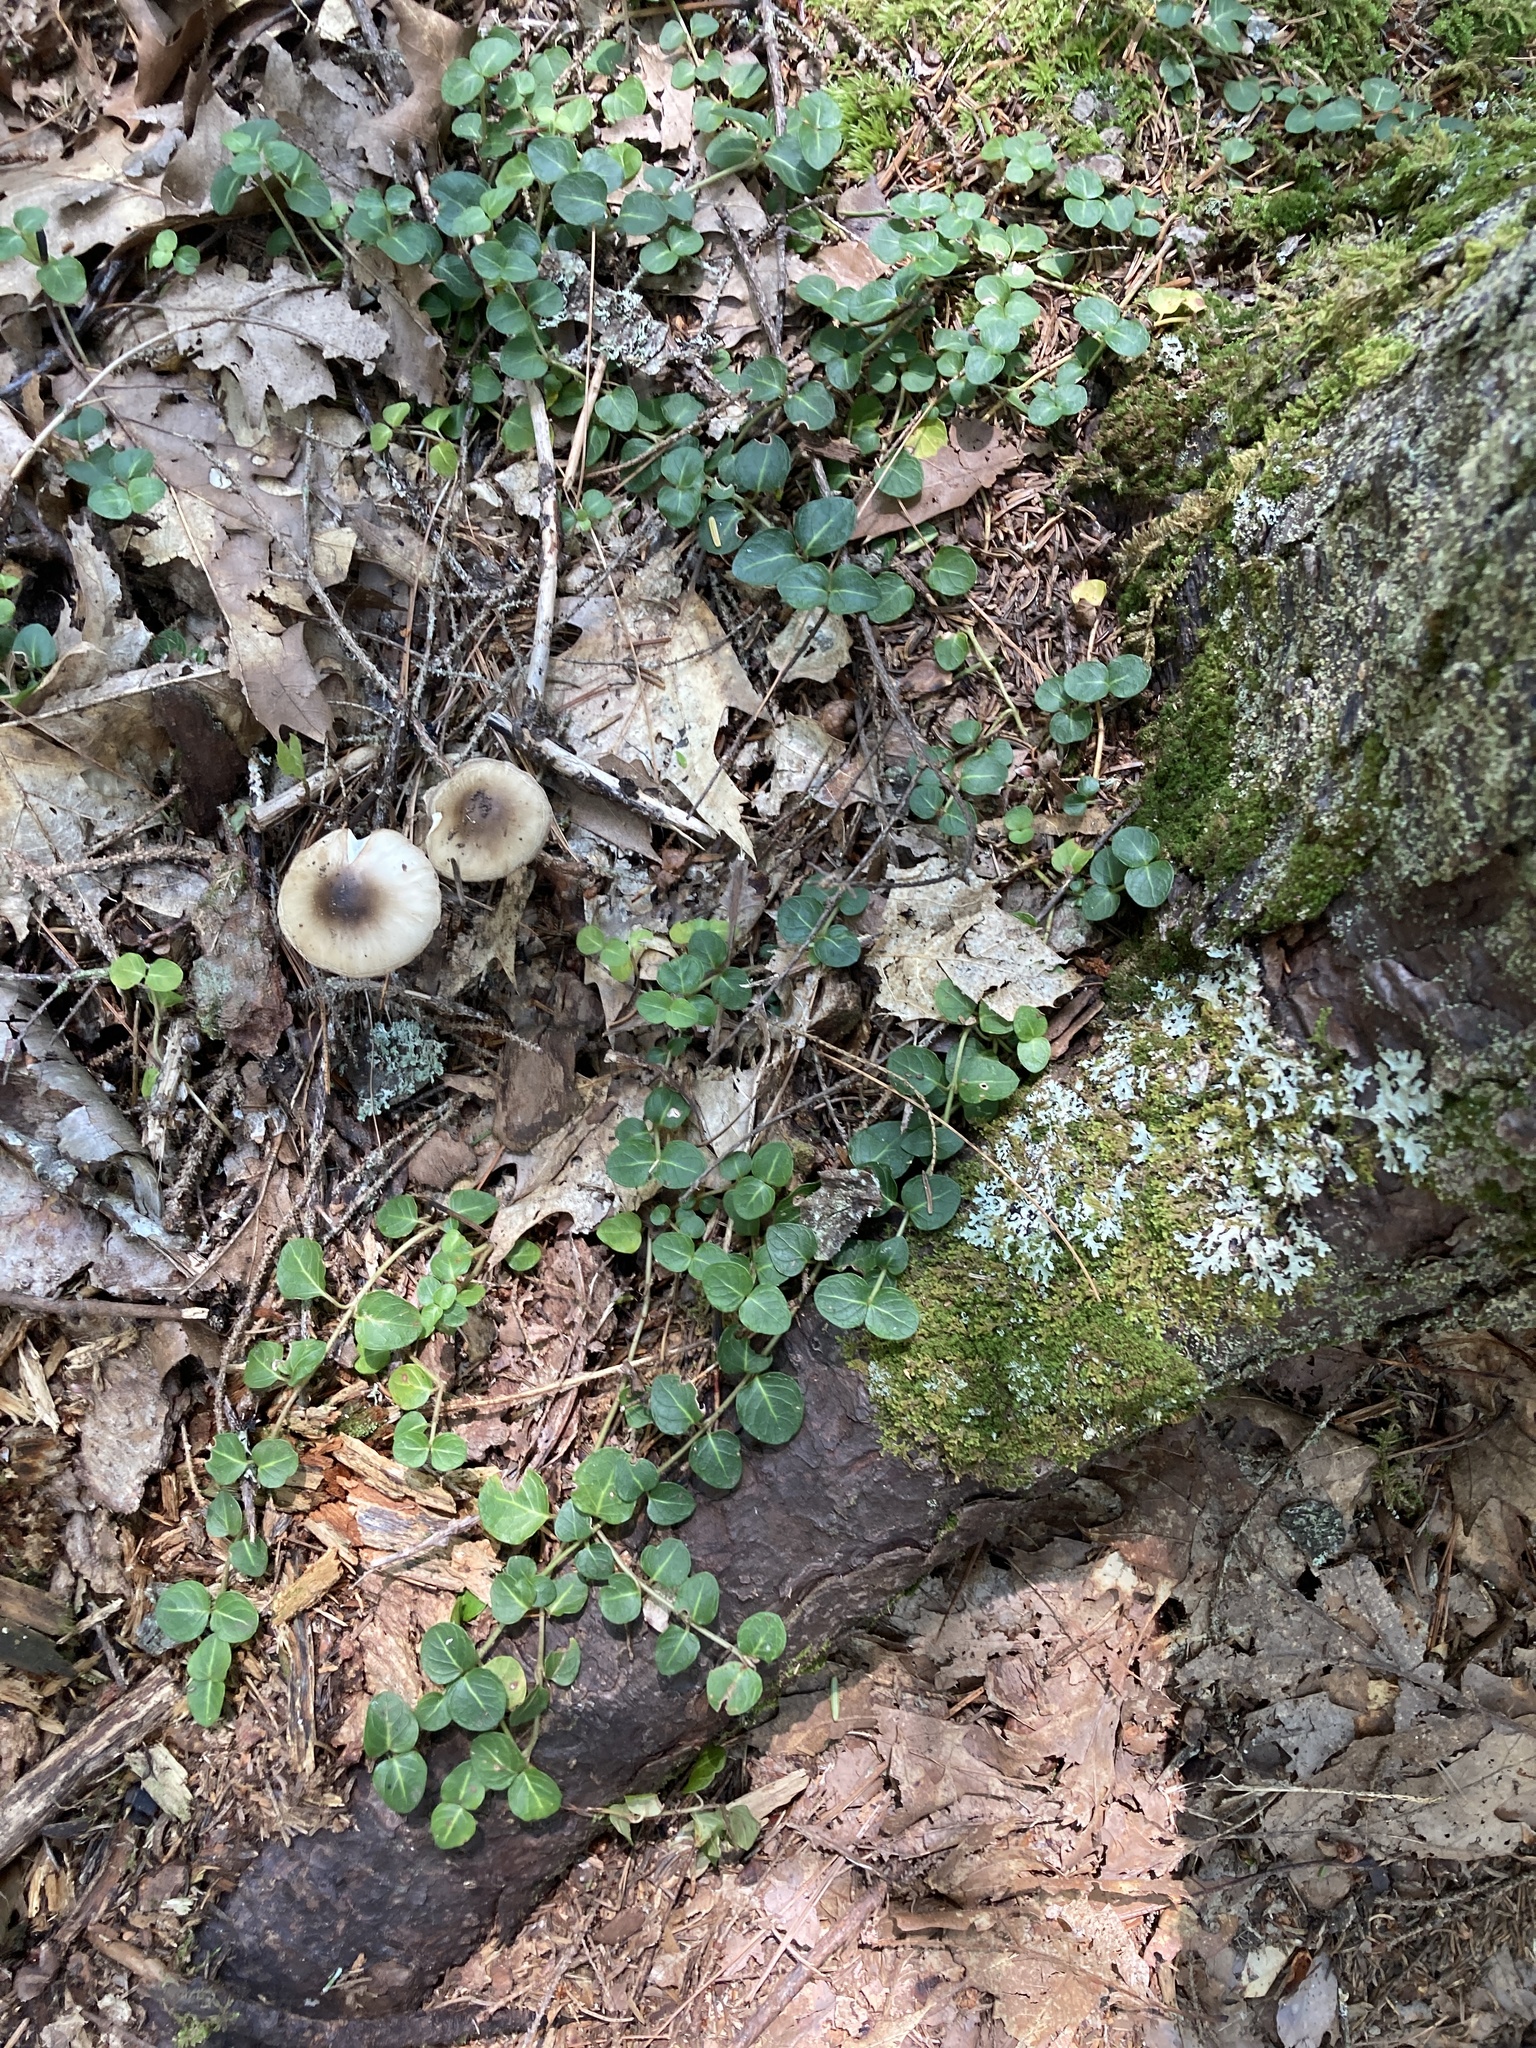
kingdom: Plantae
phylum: Tracheophyta
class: Magnoliopsida
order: Gentianales
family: Rubiaceae
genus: Mitchella
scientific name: Mitchella repens
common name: Partridge-berry
